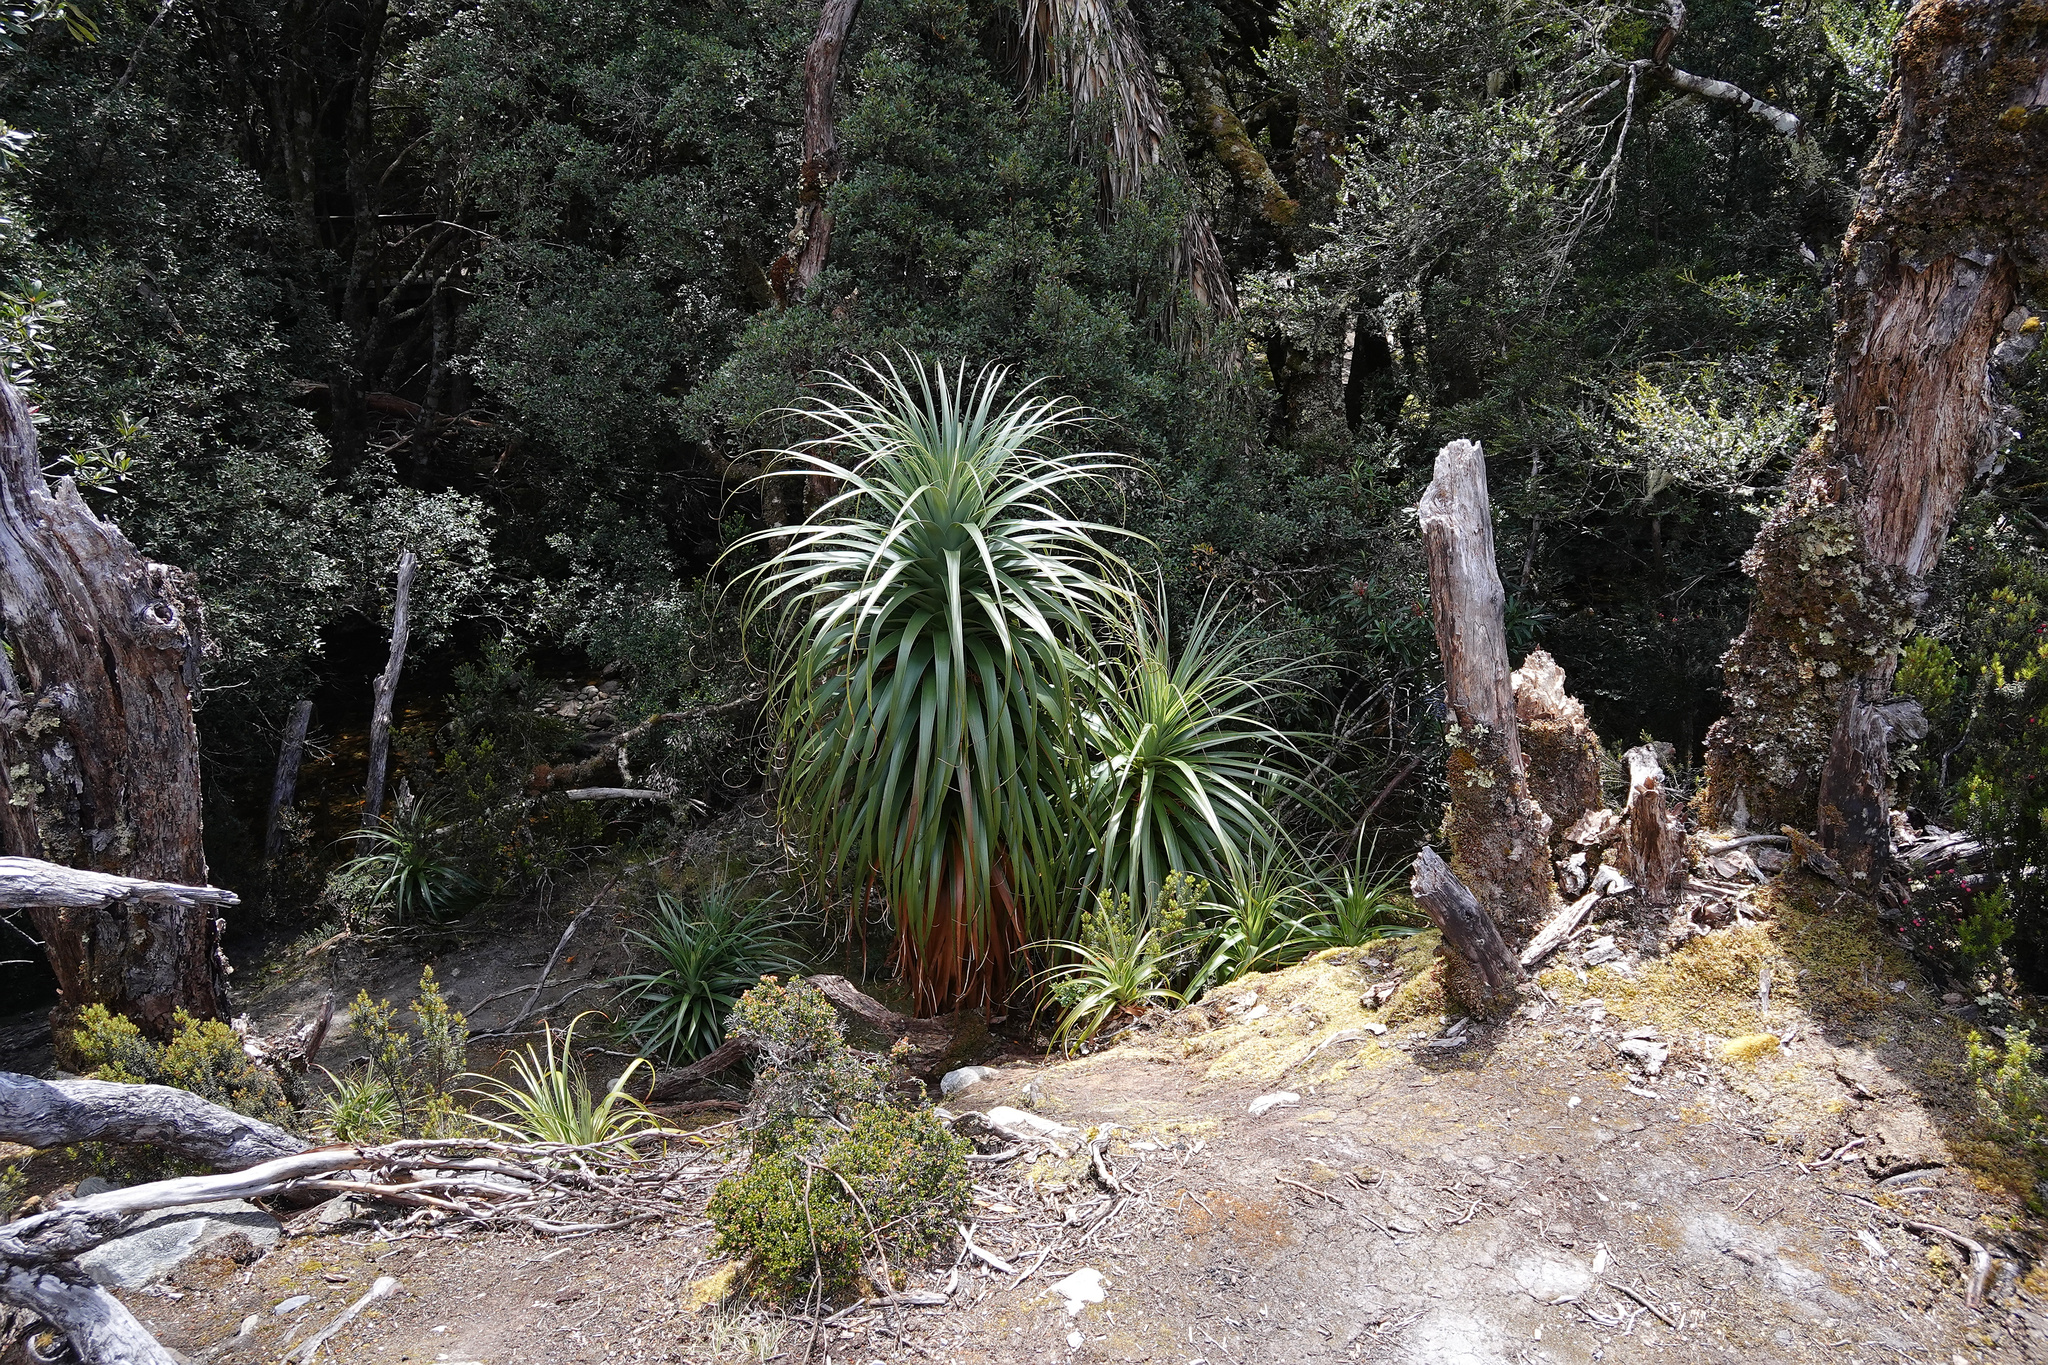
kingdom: Plantae
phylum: Tracheophyta
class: Magnoliopsida
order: Ericales
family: Ericaceae
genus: Dracophyllum
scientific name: Dracophyllum pandanifolium
